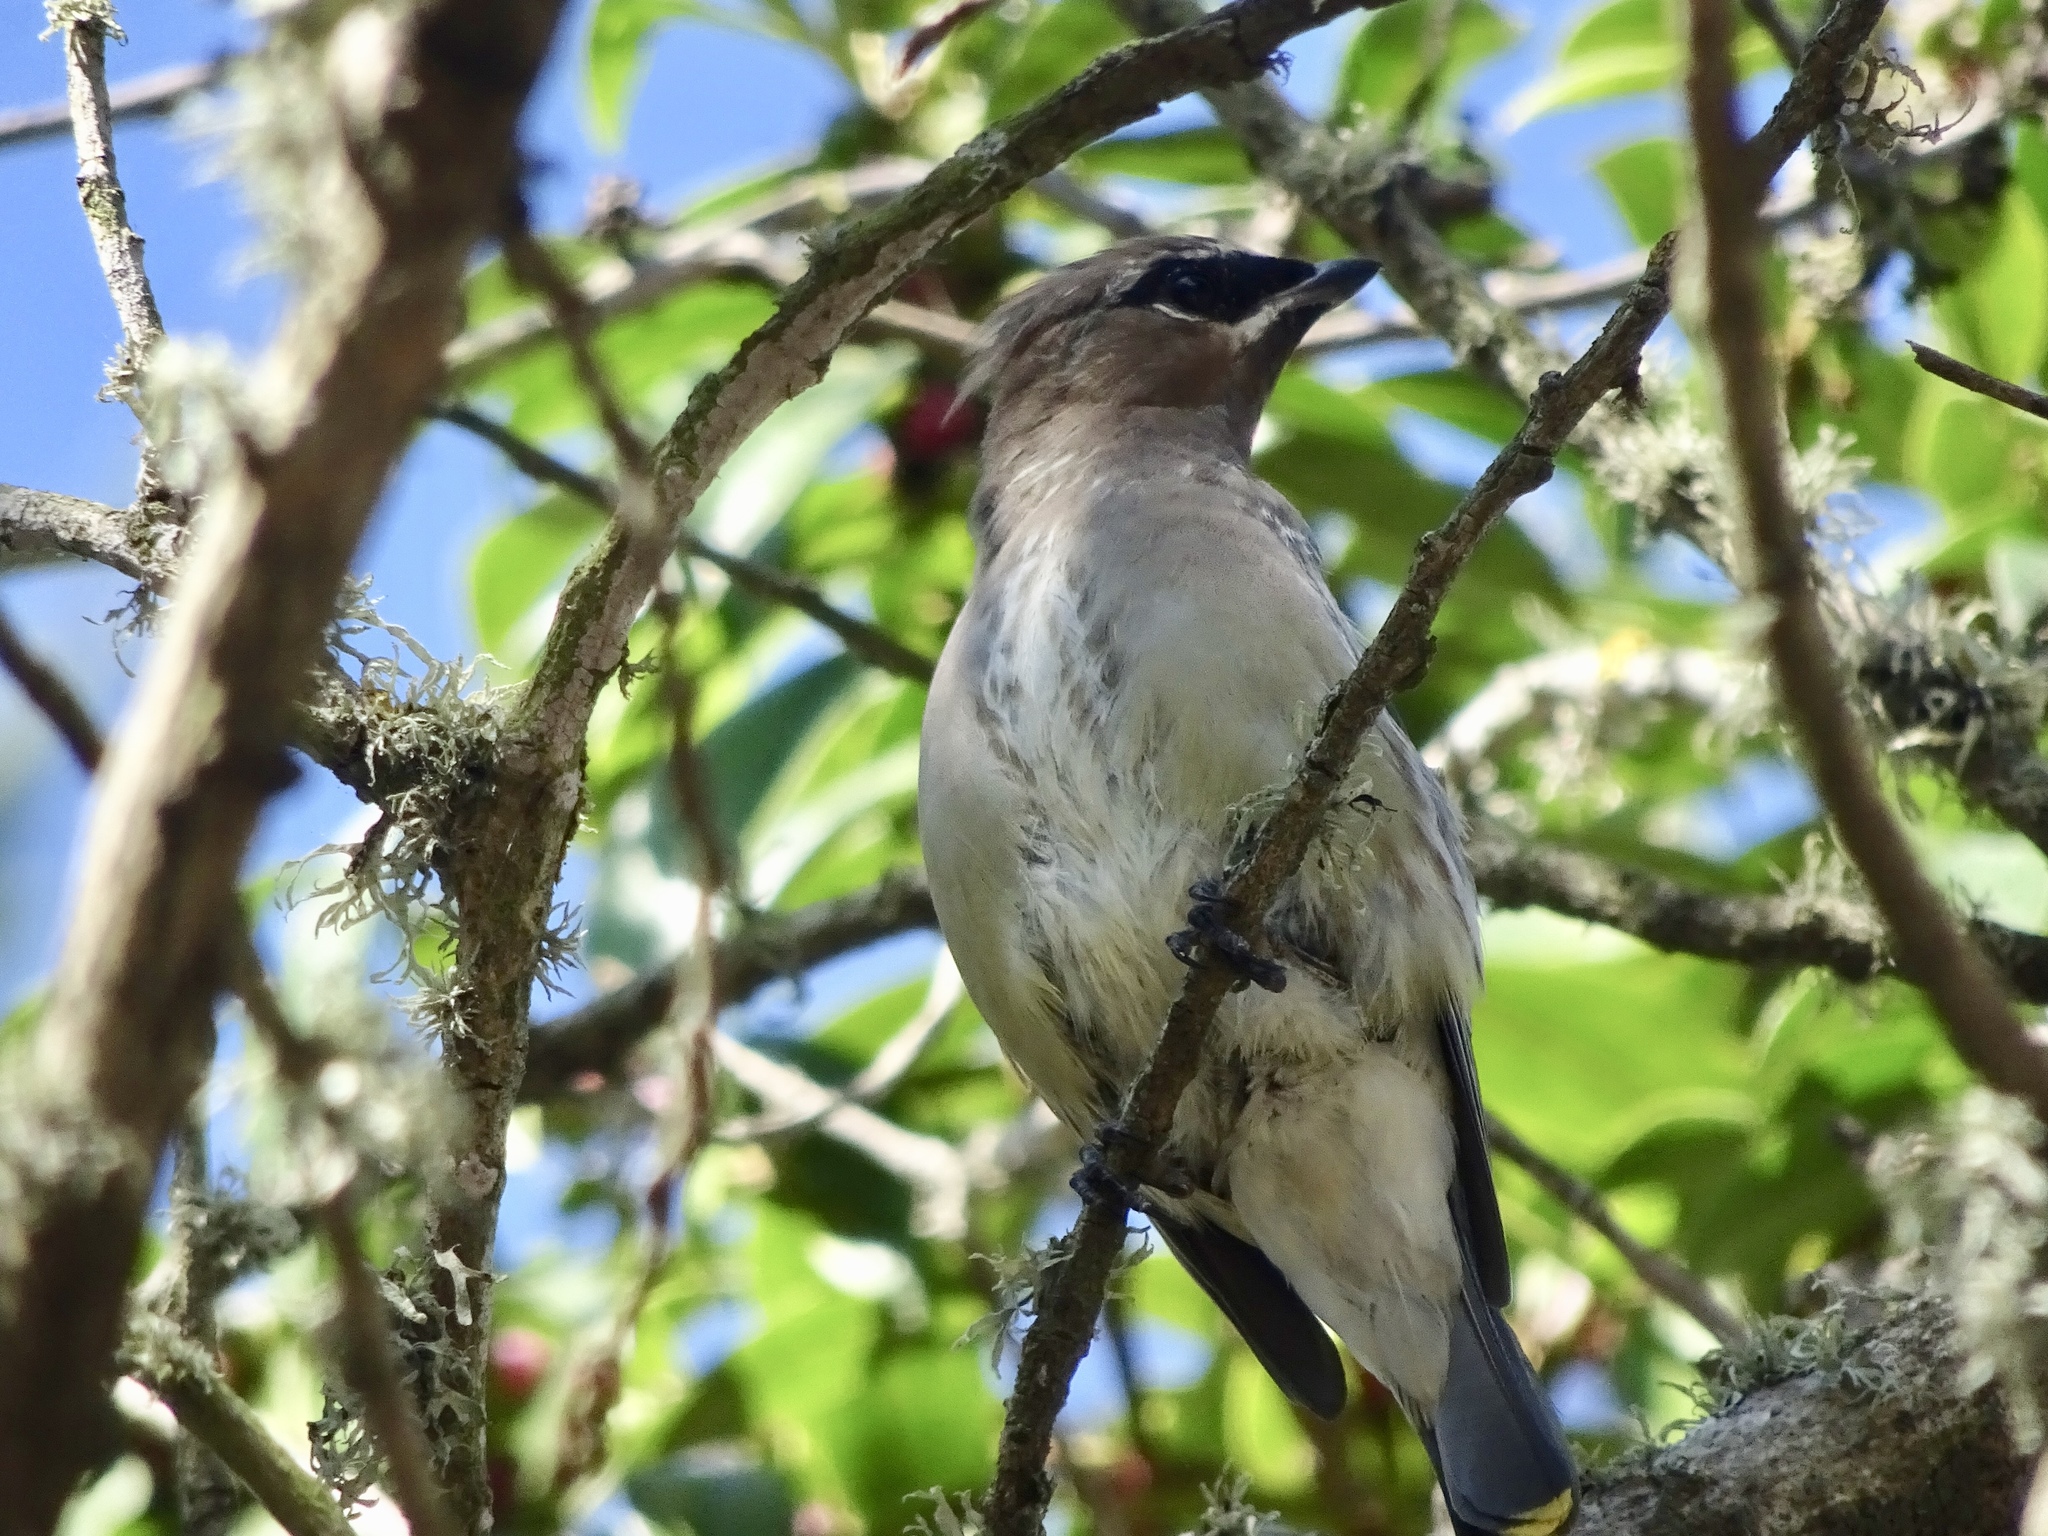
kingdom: Animalia
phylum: Chordata
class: Aves
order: Passeriformes
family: Bombycillidae
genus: Bombycilla
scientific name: Bombycilla cedrorum
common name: Cedar waxwing
